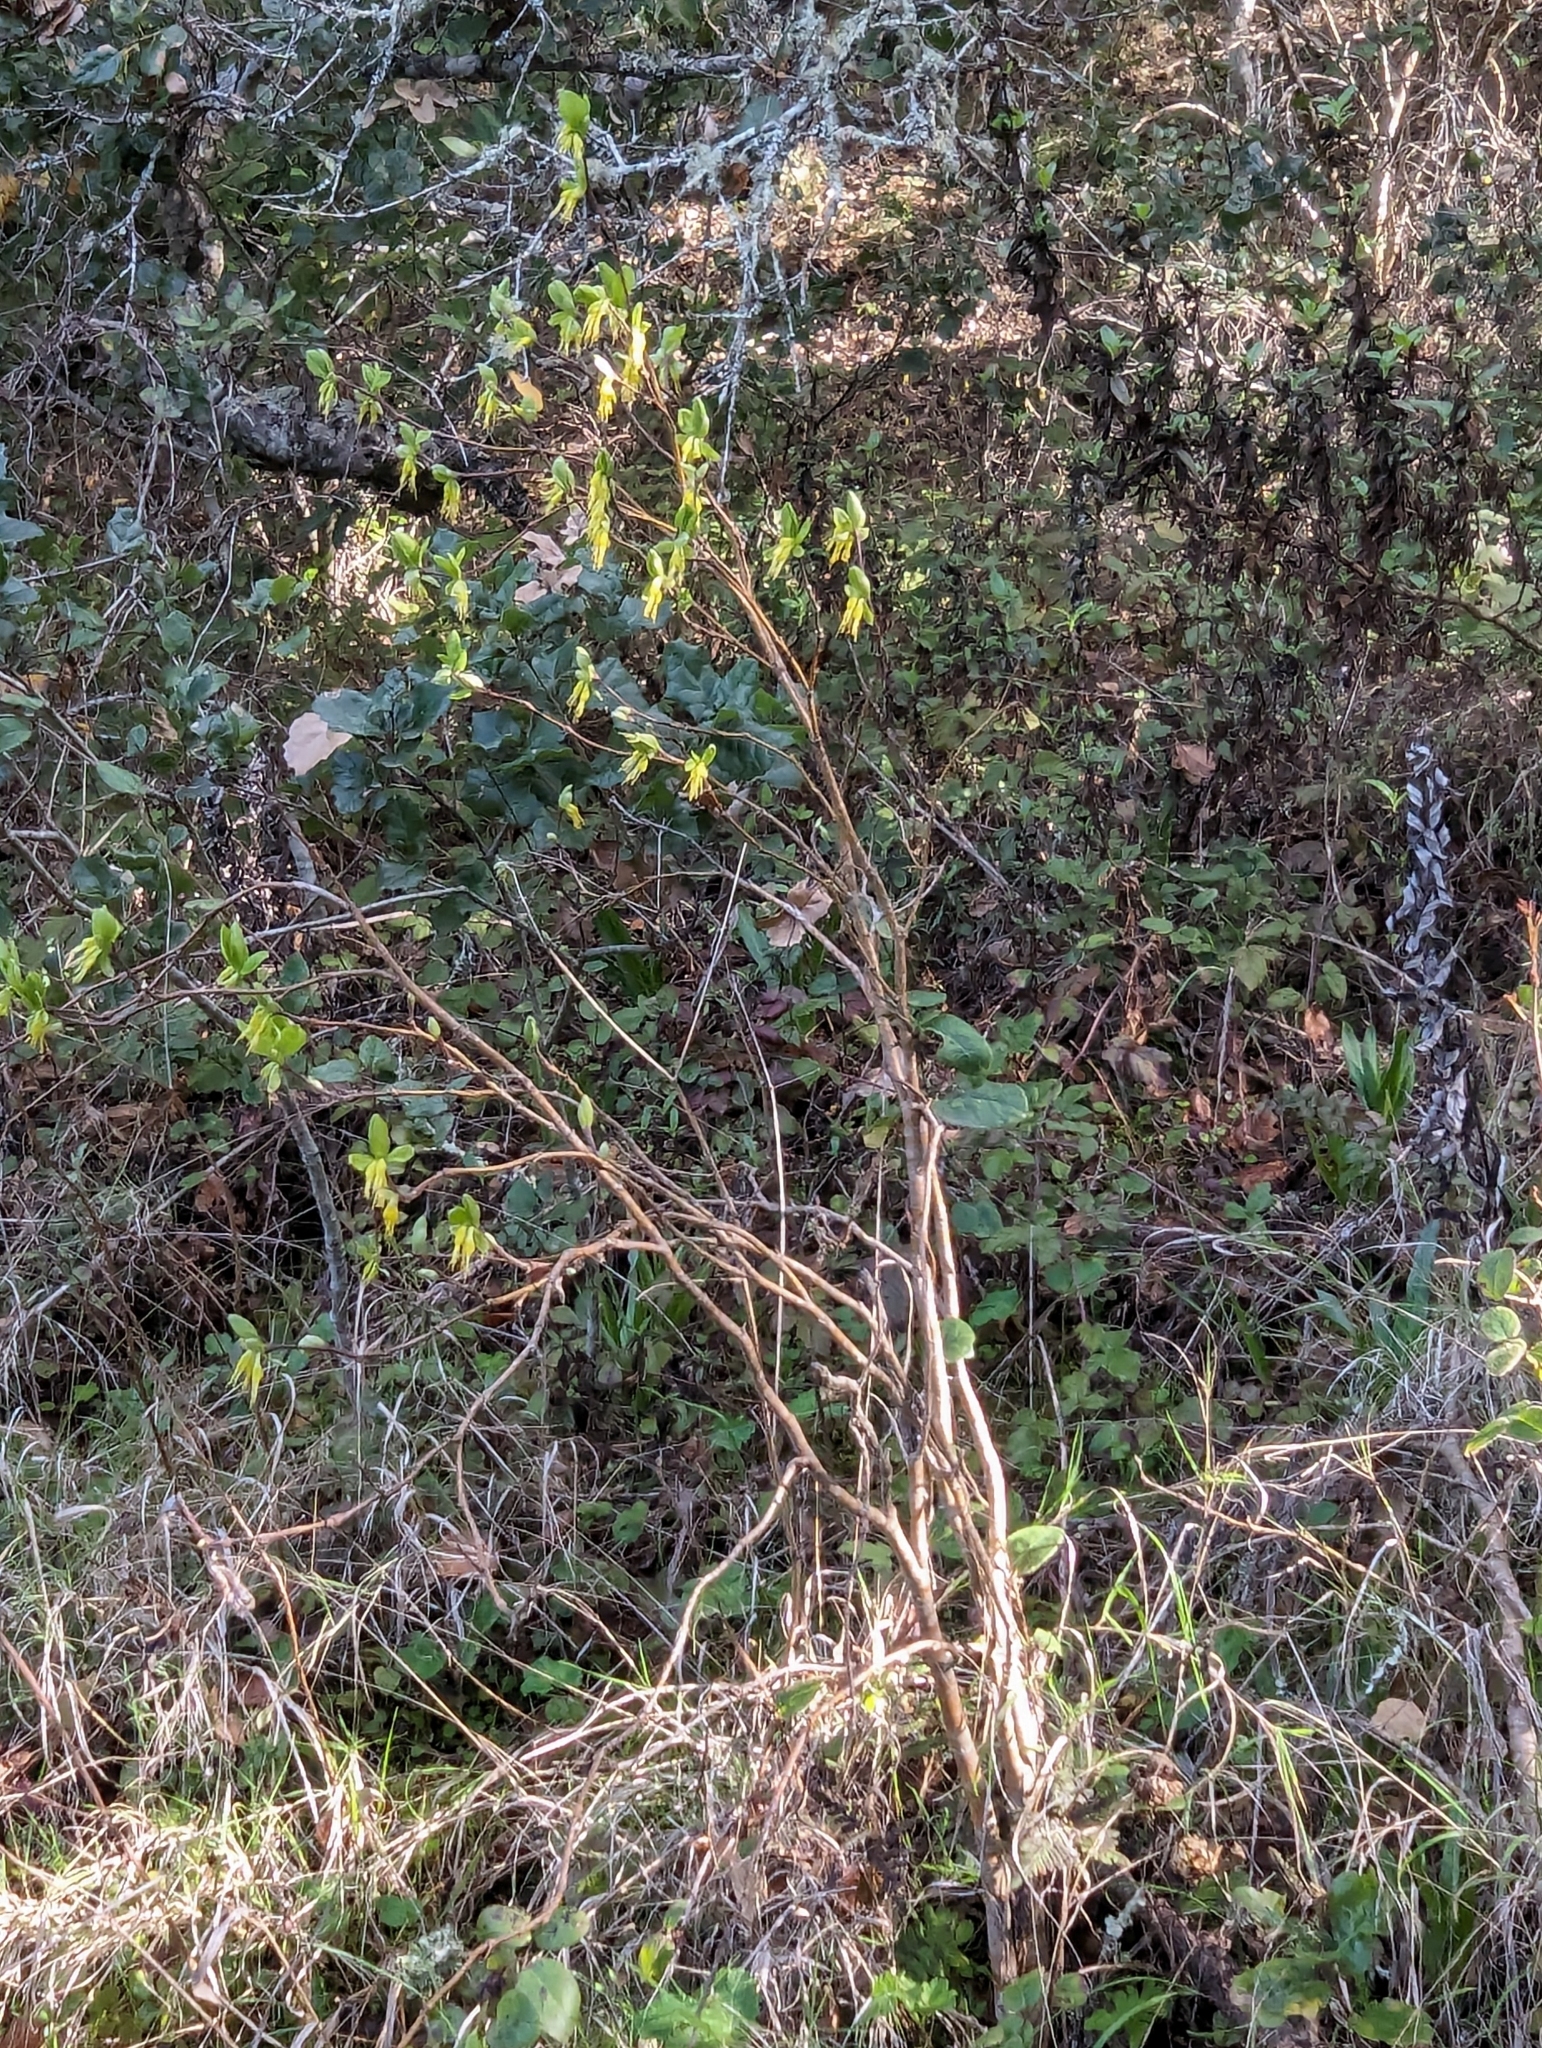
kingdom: Plantae
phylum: Tracheophyta
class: Magnoliopsida
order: Malvales
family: Thymelaeaceae
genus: Dirca
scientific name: Dirca occidentalis
